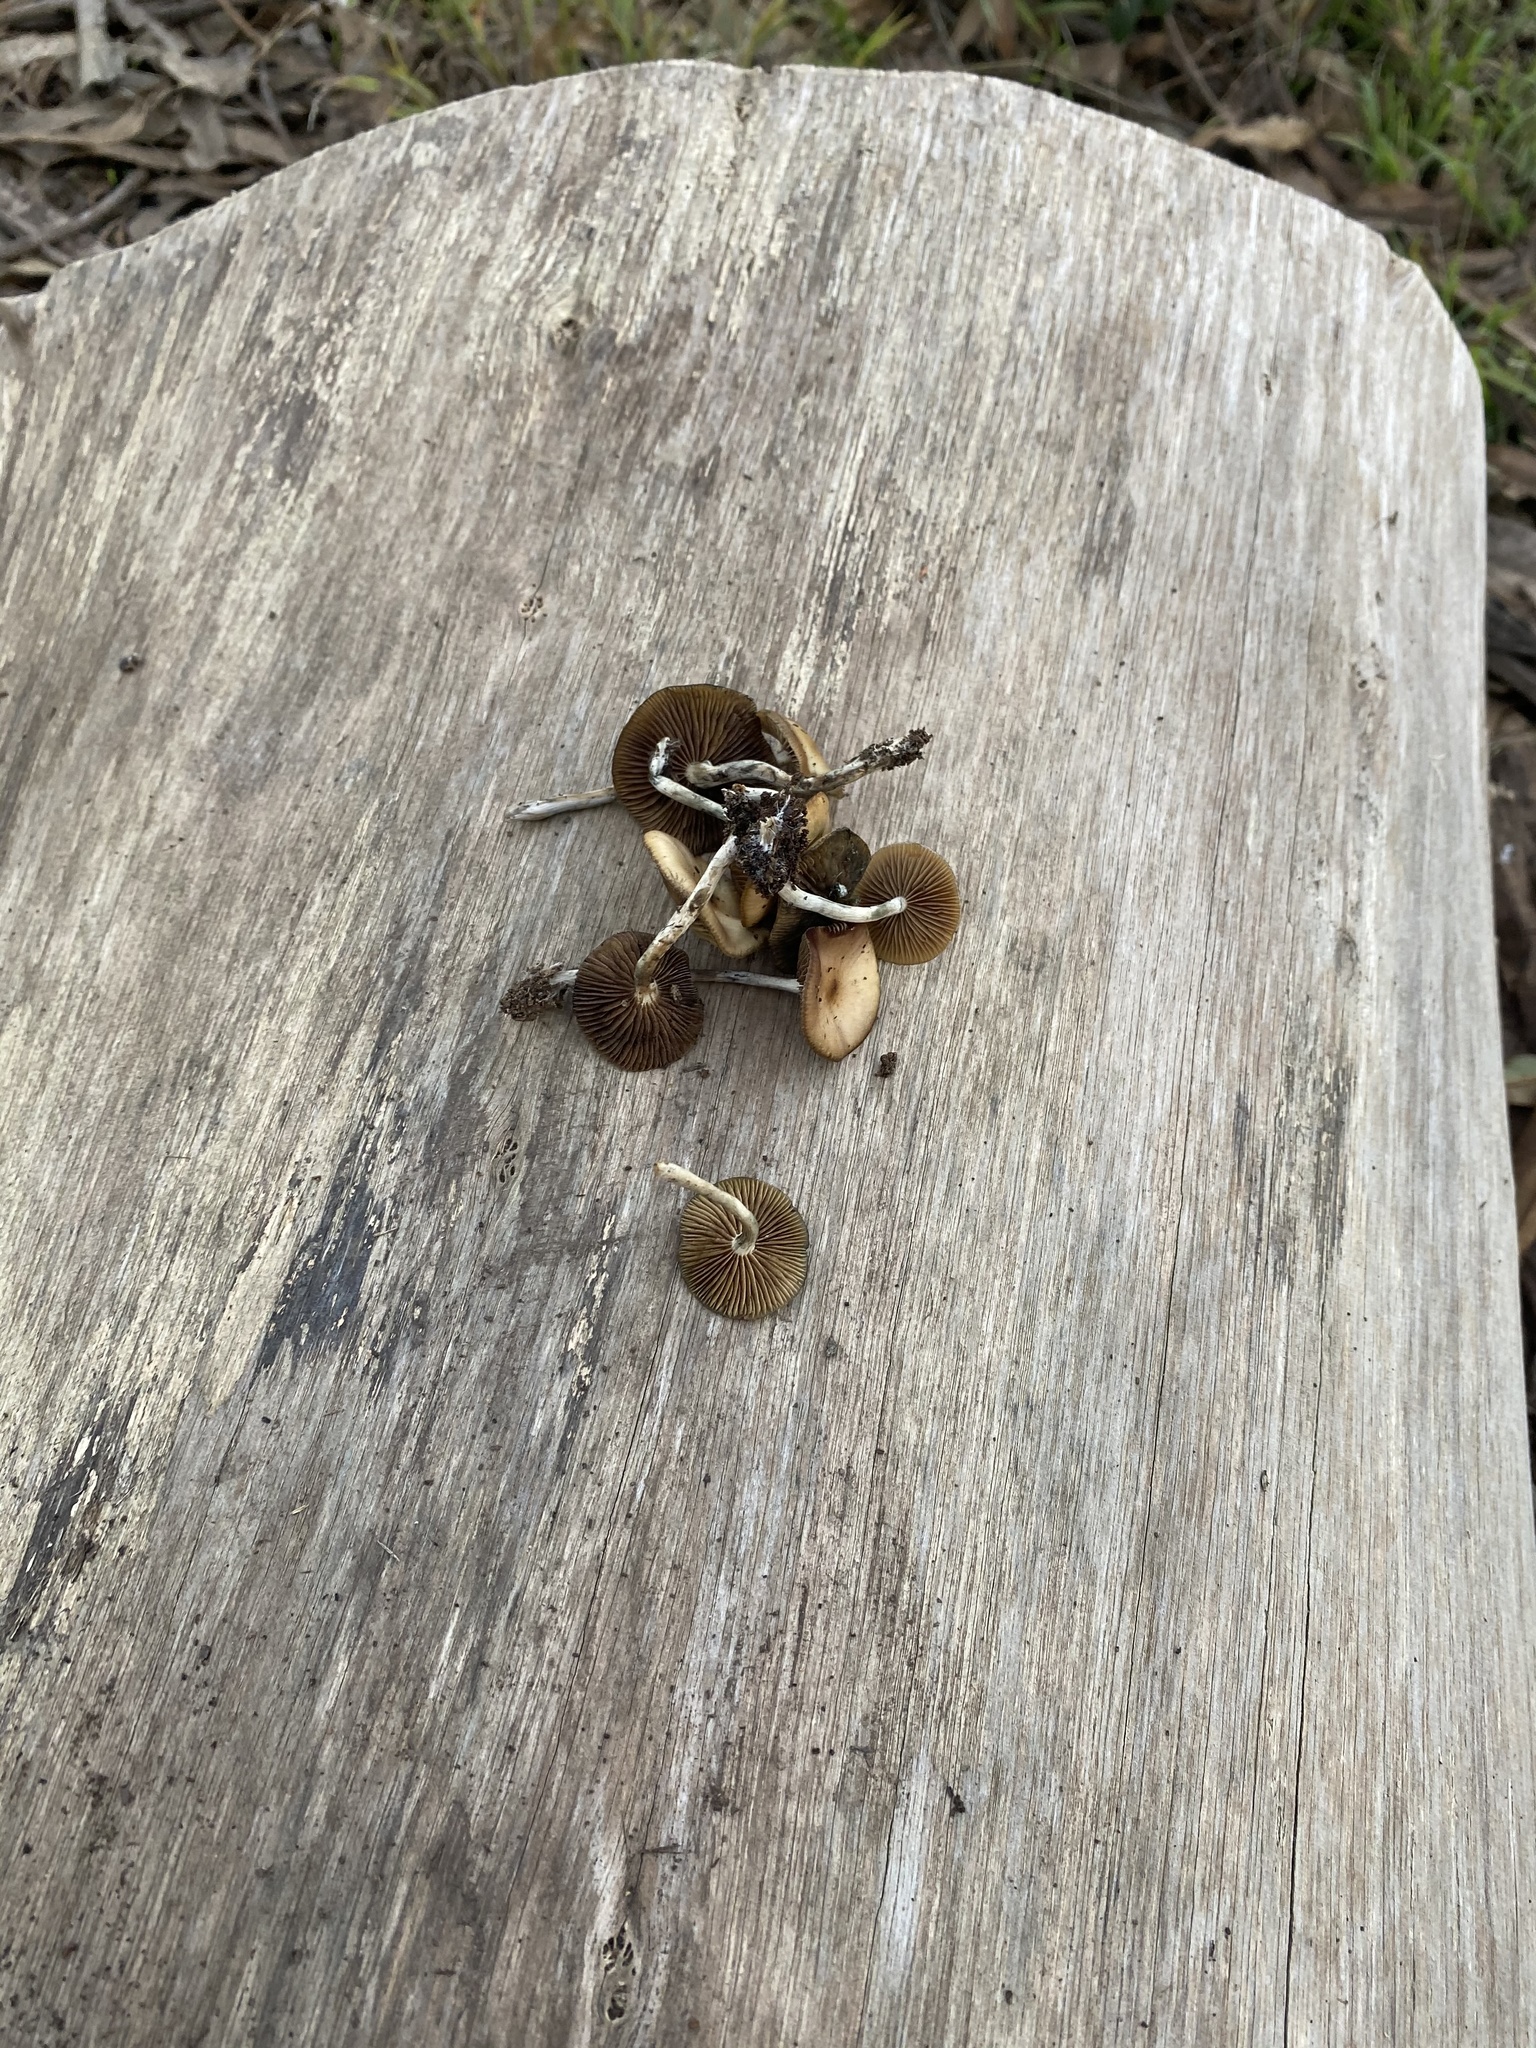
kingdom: Fungi
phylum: Basidiomycota
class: Agaricomycetes
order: Agaricales
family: Hymenogastraceae
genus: Psilocybe
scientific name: Psilocybe cyanescens
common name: Blueleg brownie
